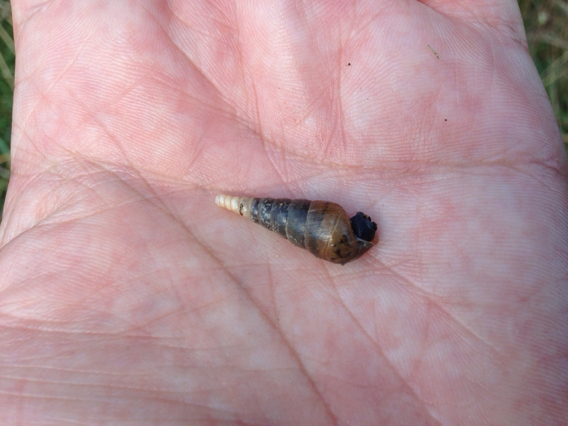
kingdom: Animalia
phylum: Mollusca
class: Gastropoda
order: Stylommatophora
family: Achatinidae
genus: Rumina
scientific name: Rumina decollata
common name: Decollate snail
